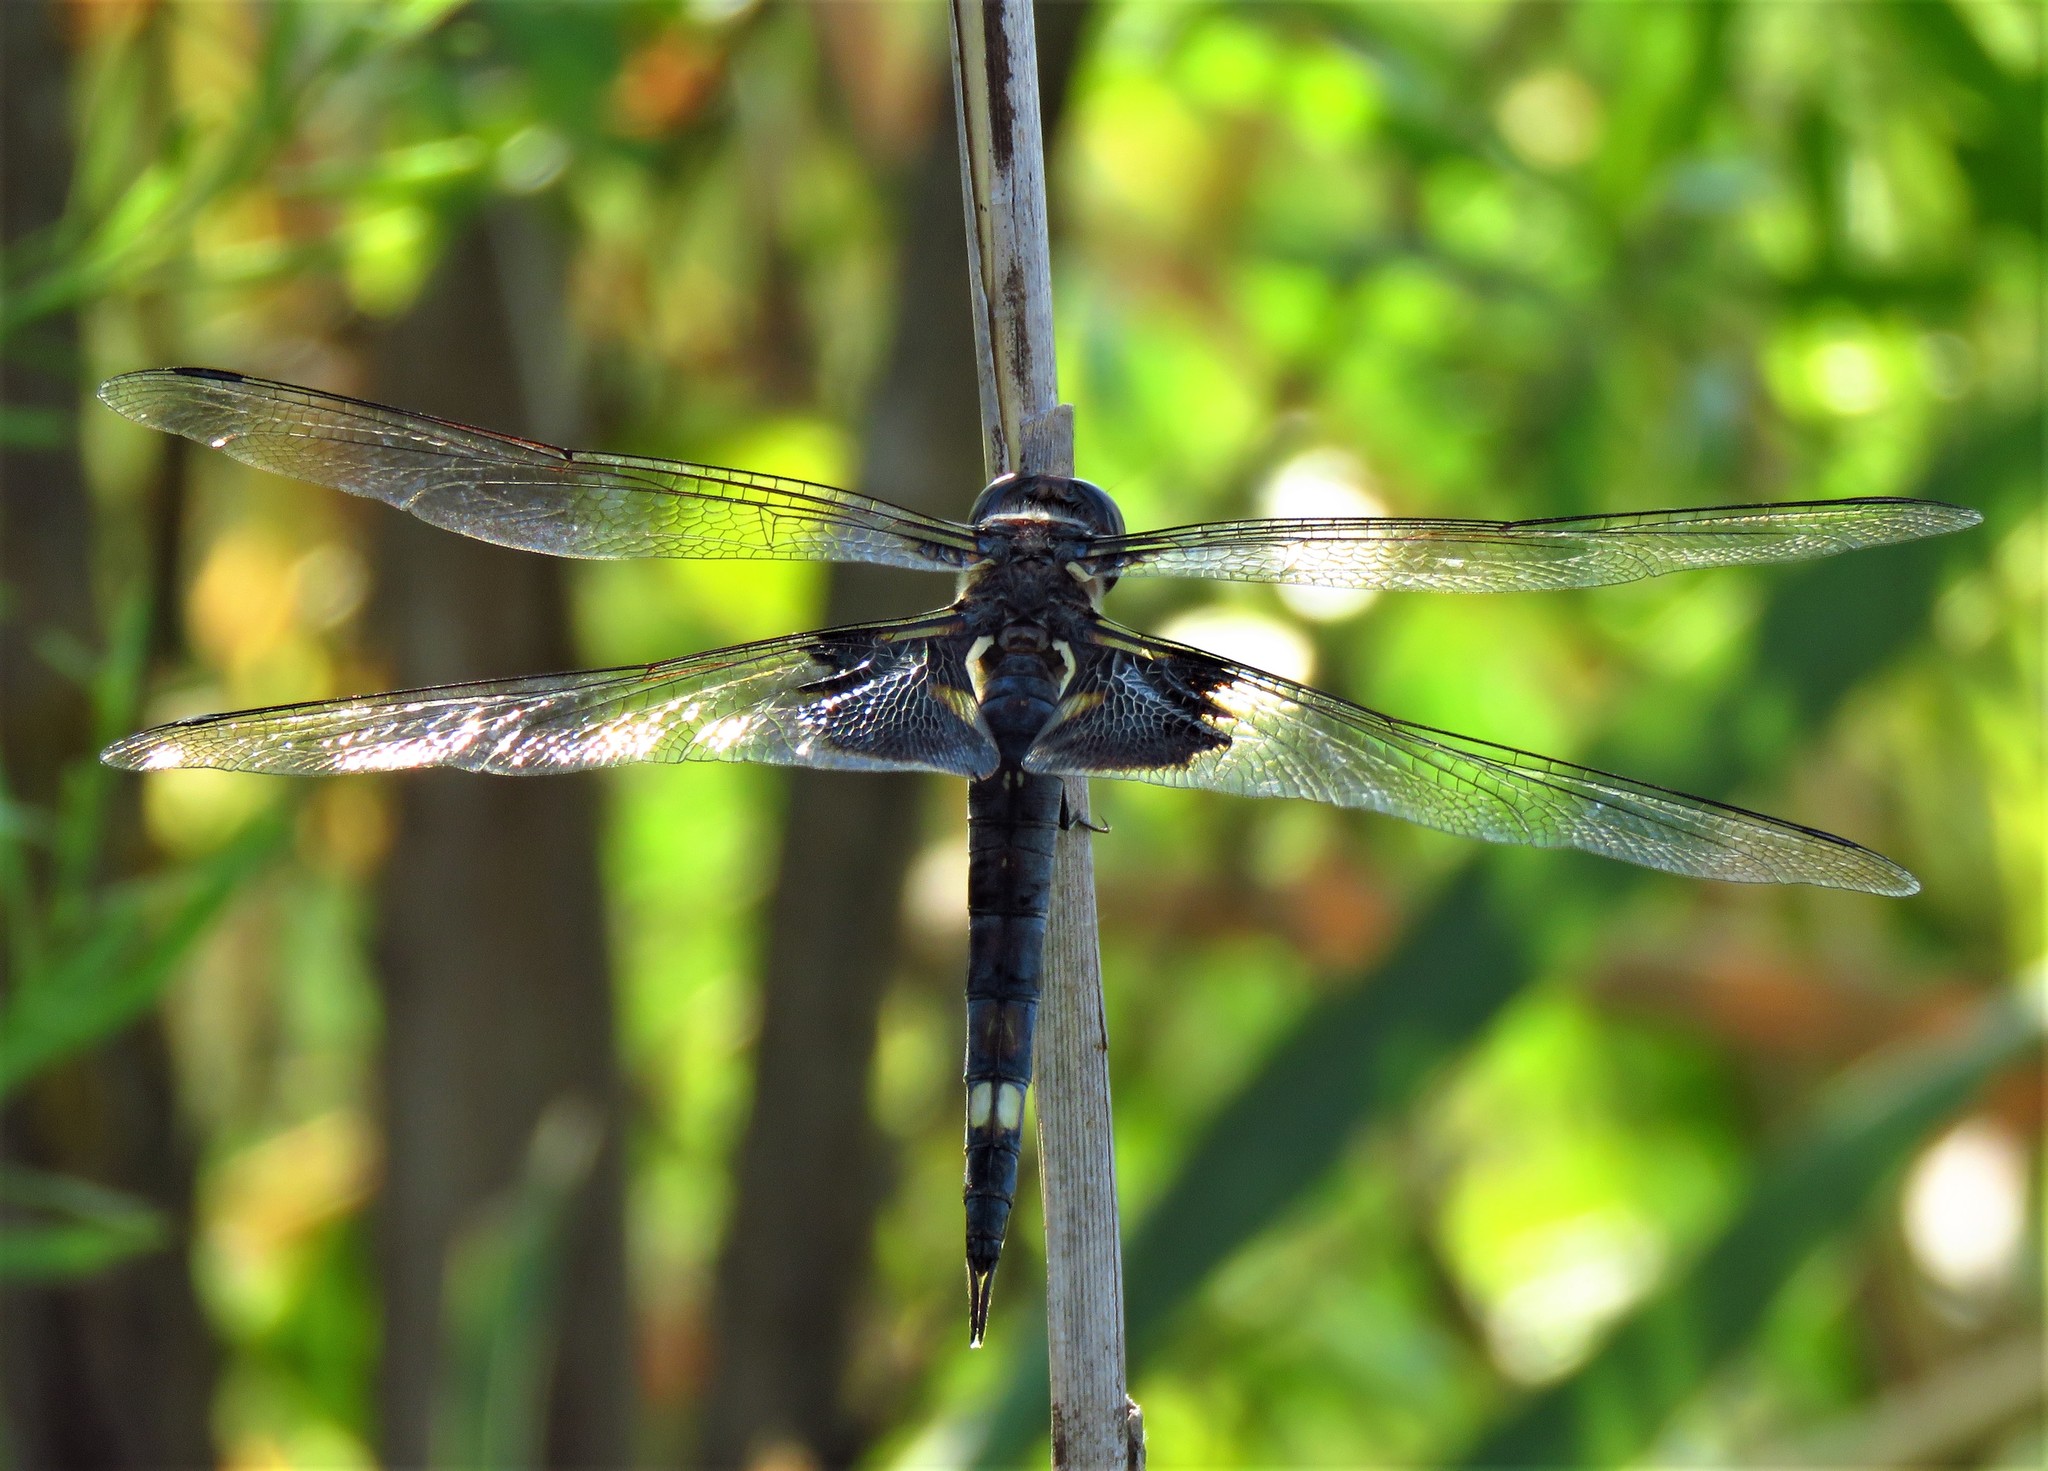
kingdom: Animalia
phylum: Arthropoda
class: Insecta
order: Odonata
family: Libellulidae
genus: Tramea
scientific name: Tramea lacerata
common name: Black saddlebags
